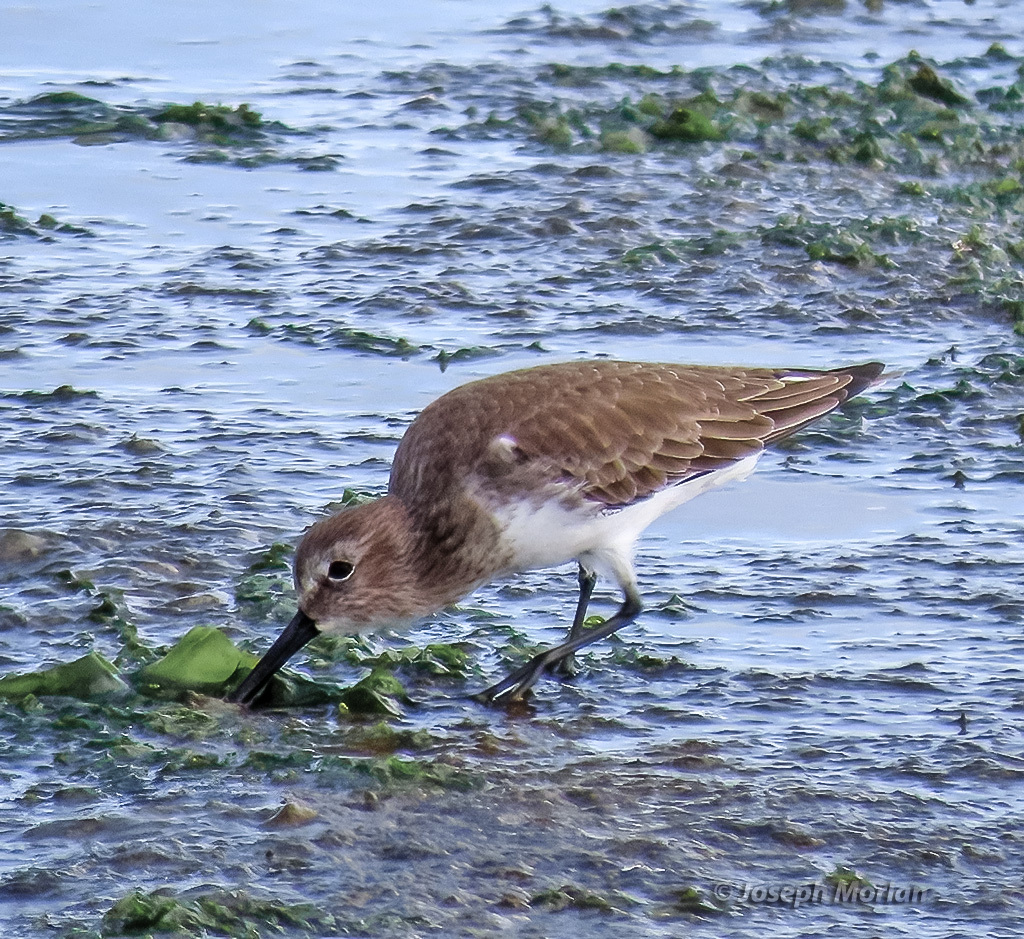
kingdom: Animalia
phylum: Chordata
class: Aves
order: Charadriiformes
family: Scolopacidae
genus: Calidris
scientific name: Calidris alpina
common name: Dunlin
